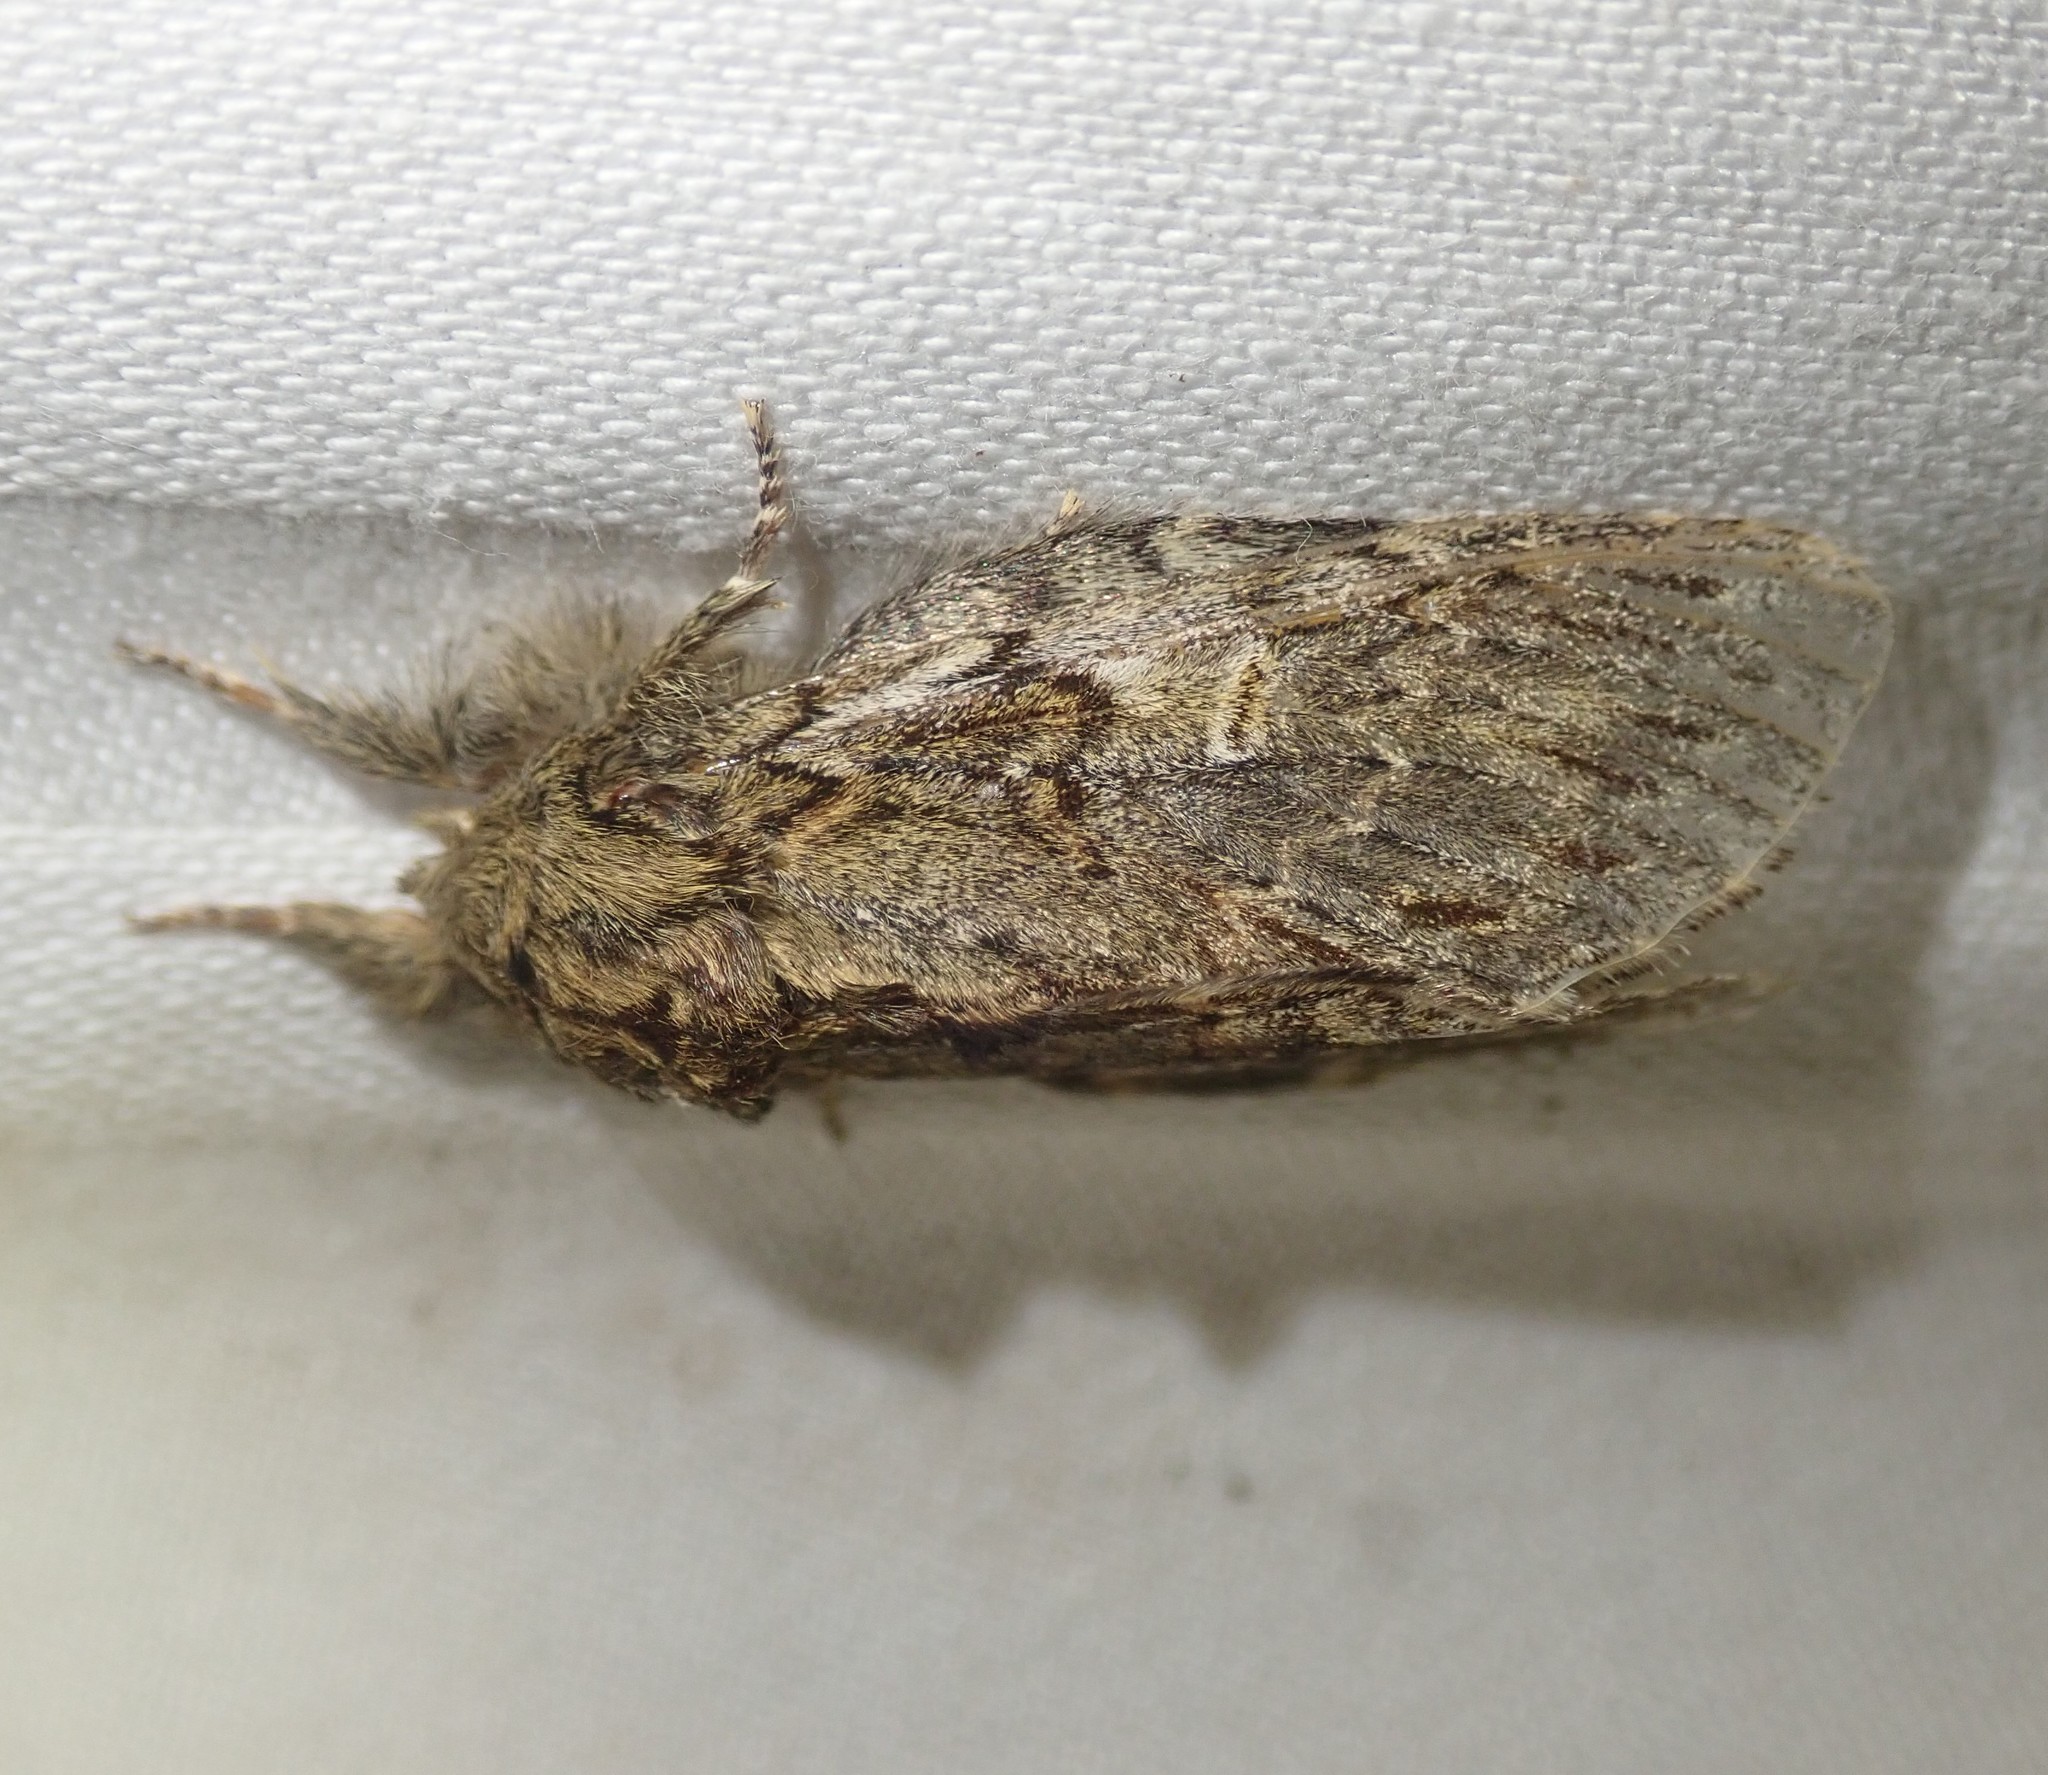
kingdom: Animalia
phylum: Arthropoda
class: Insecta
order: Lepidoptera
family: Notodontidae
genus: Peridea
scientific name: Peridea anceps
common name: Great prominent
